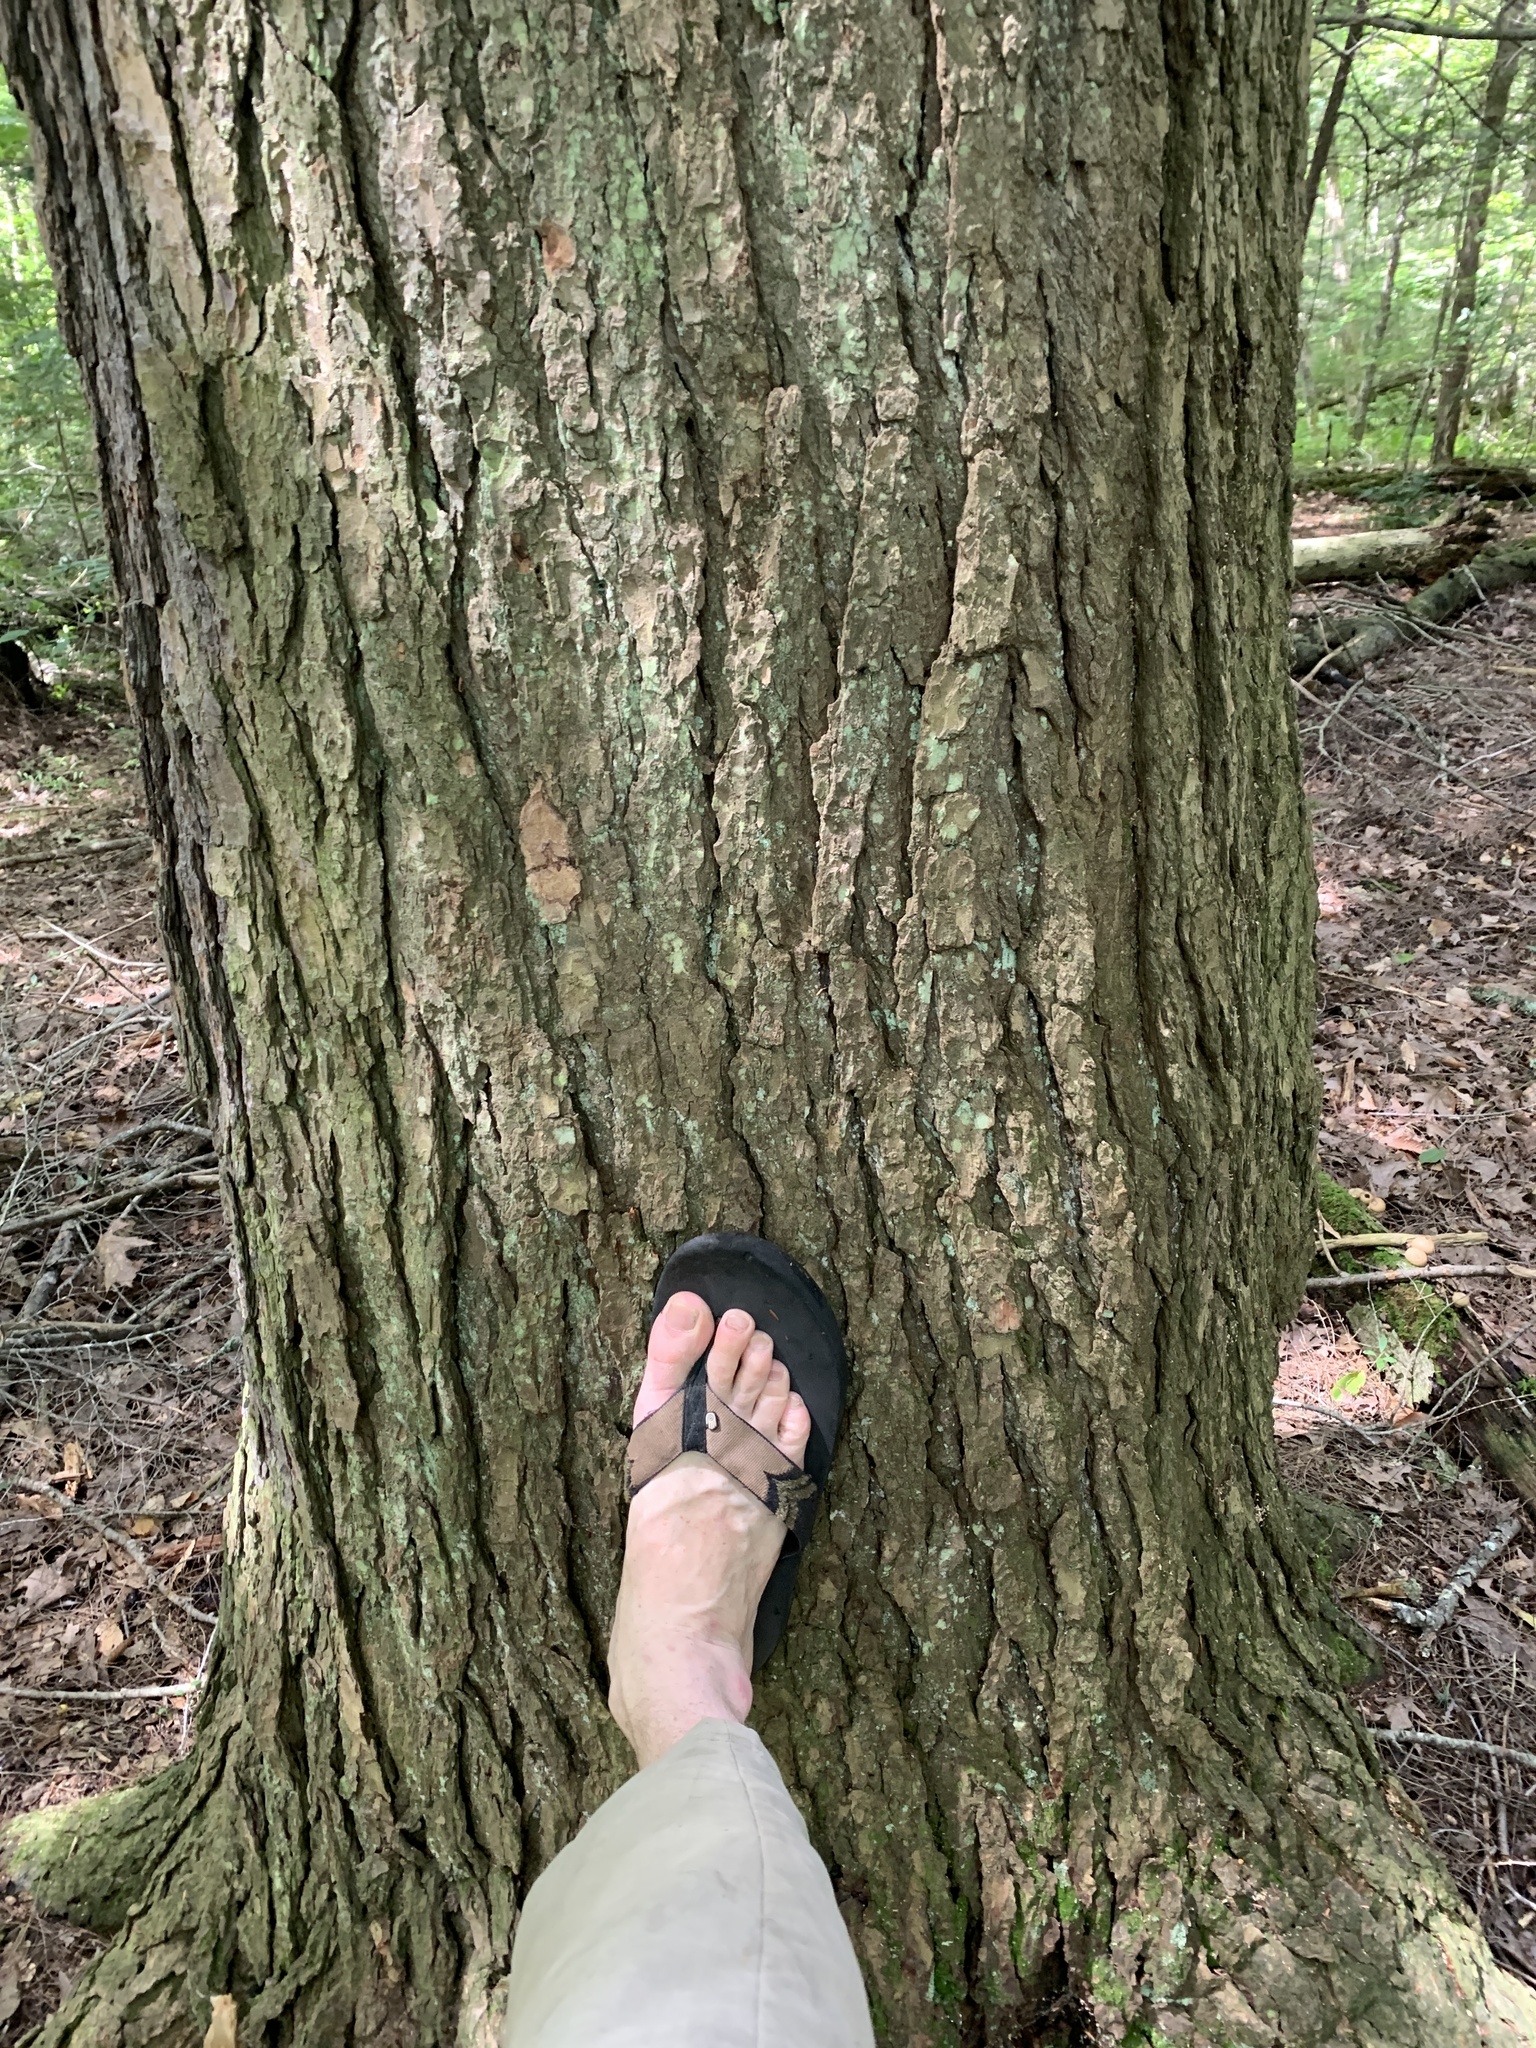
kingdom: Plantae
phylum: Tracheophyta
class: Pinopsida
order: Pinales
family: Pinaceae
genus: Tsuga
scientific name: Tsuga canadensis
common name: Eastern hemlock
